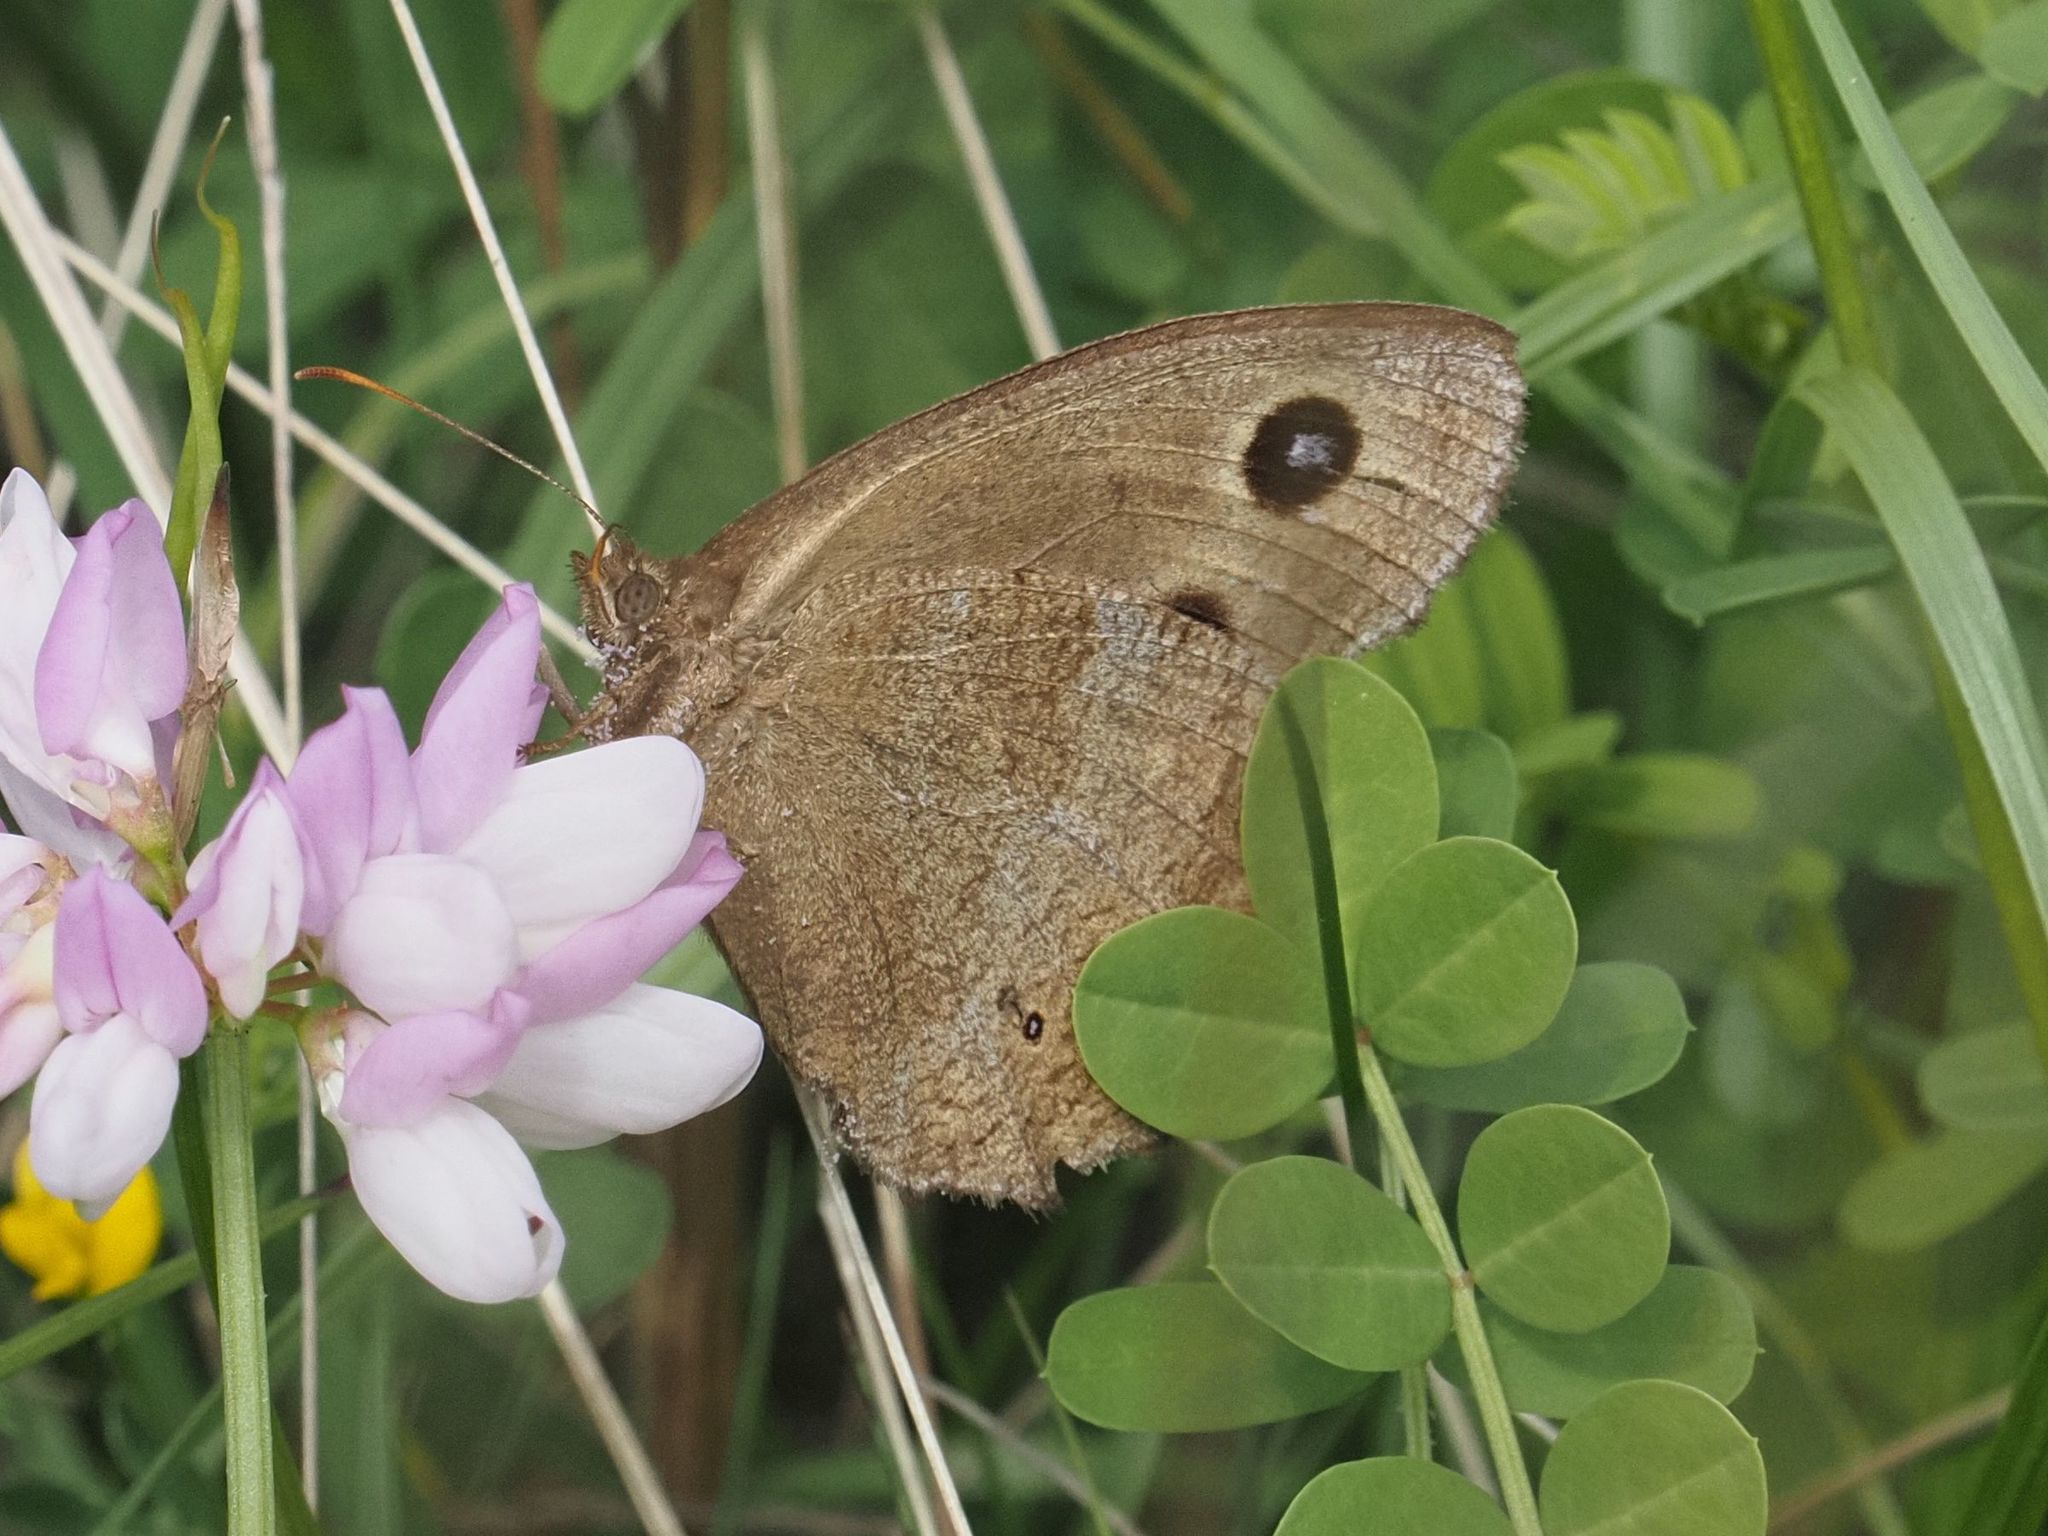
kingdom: Animalia
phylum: Arthropoda
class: Insecta
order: Lepidoptera
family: Nymphalidae
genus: Minois
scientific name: Minois dryas
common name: Dryad
